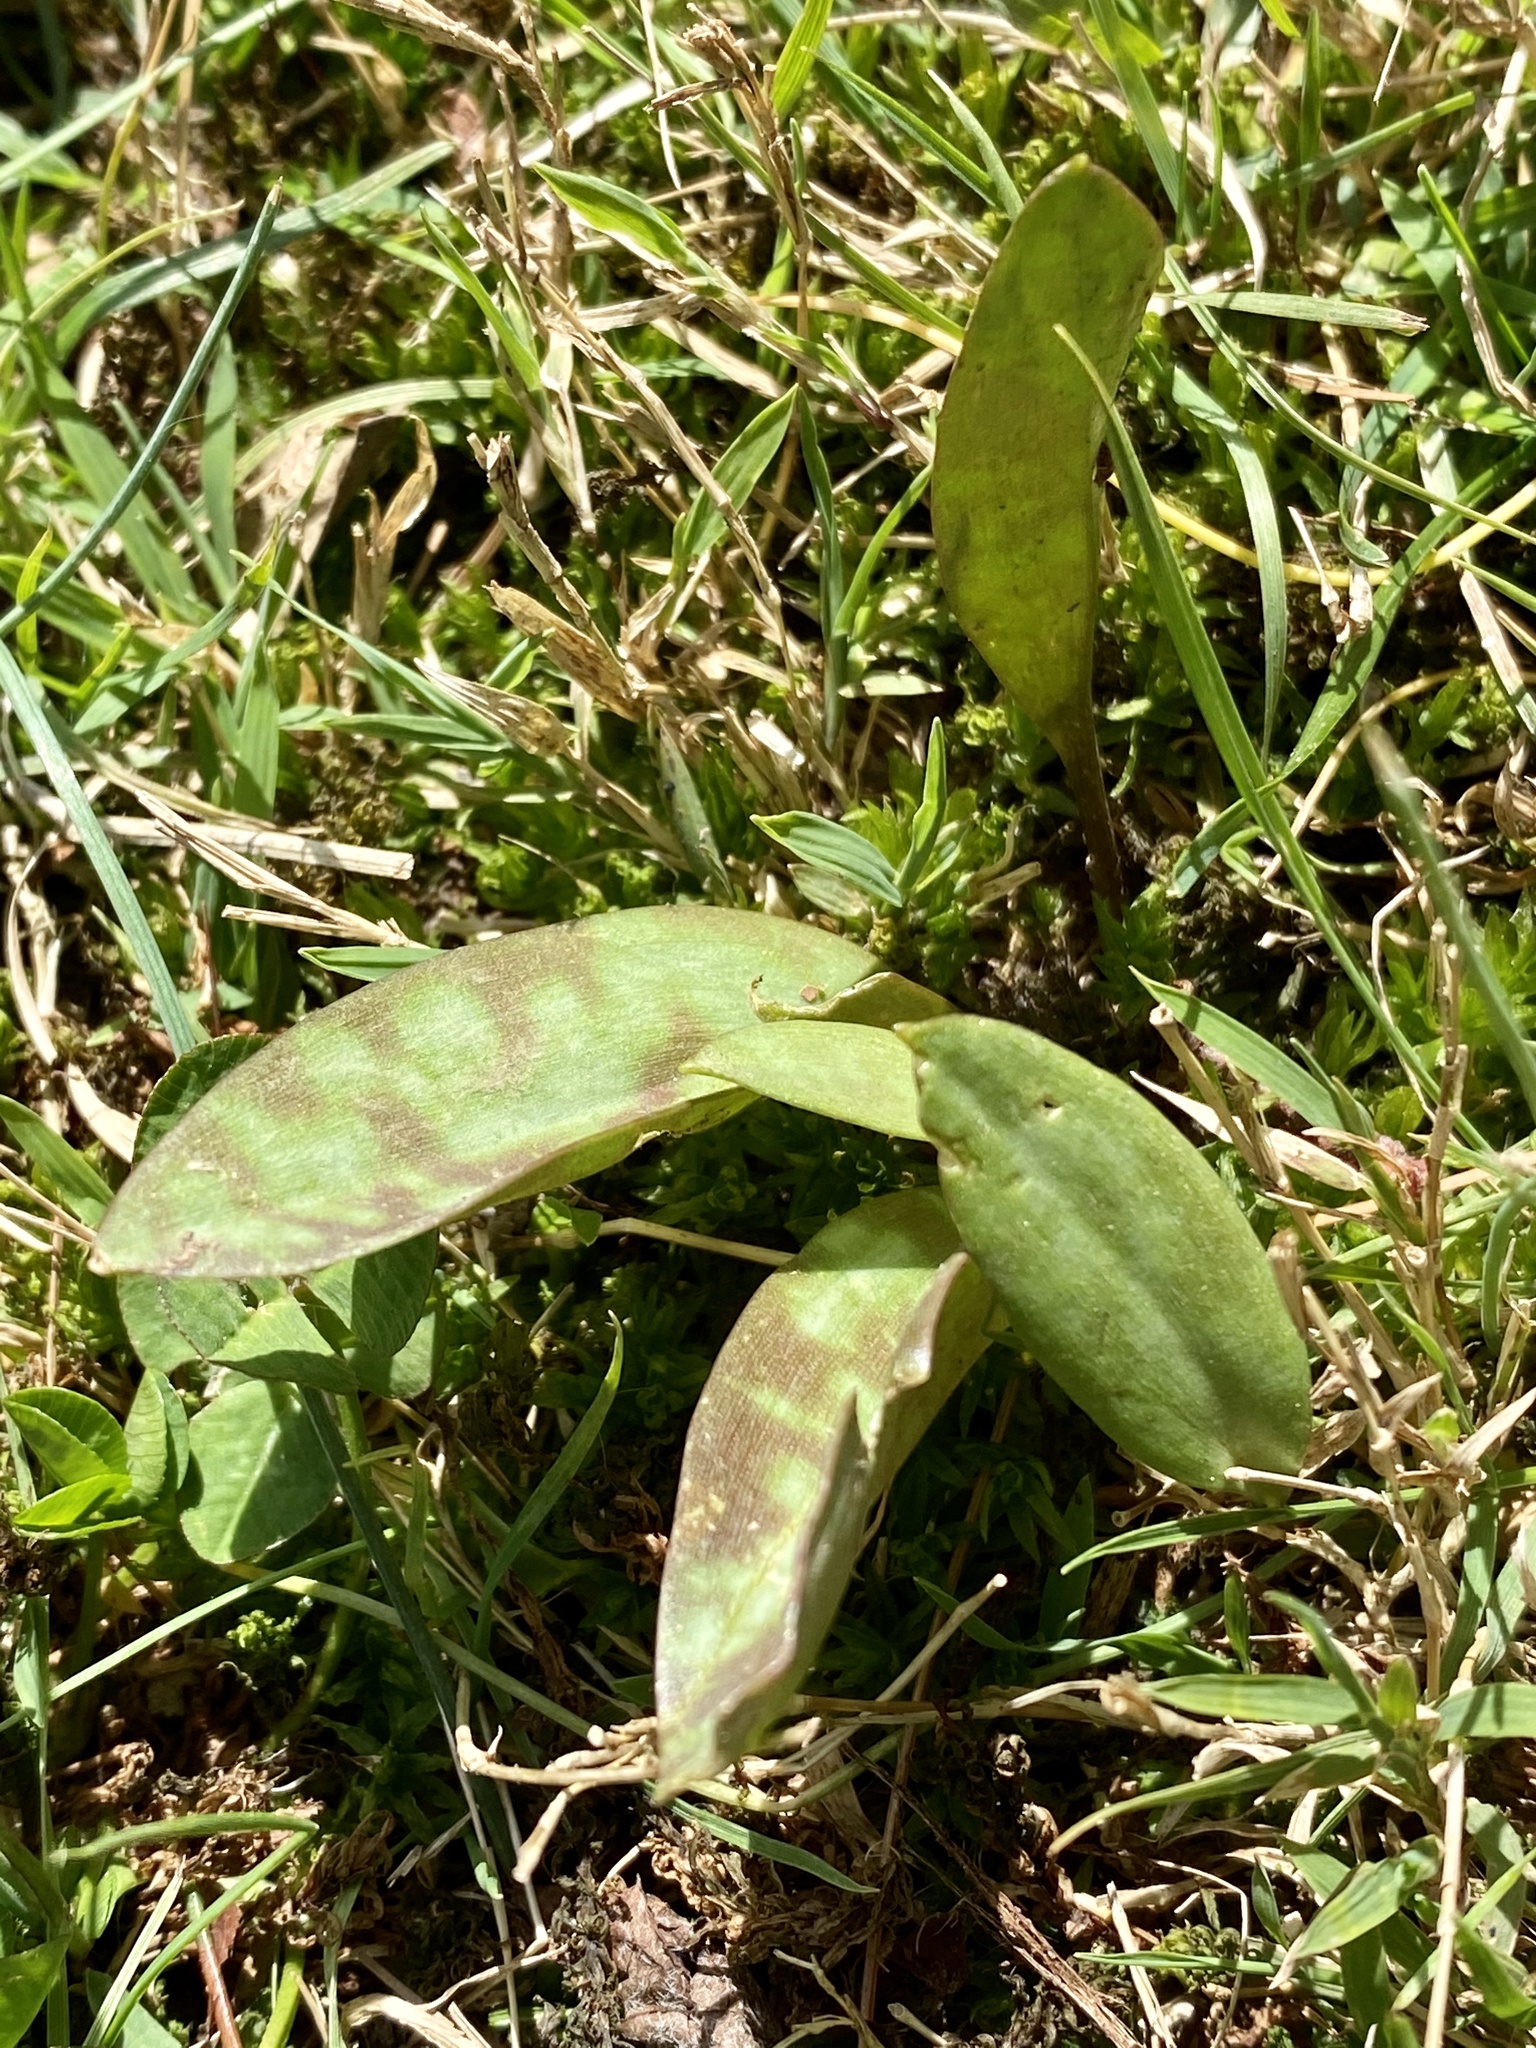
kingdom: Plantae
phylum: Tracheophyta
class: Liliopsida
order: Liliales
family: Liliaceae
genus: Erythronium
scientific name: Erythronium americanum
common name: Yellow adder's-tongue
